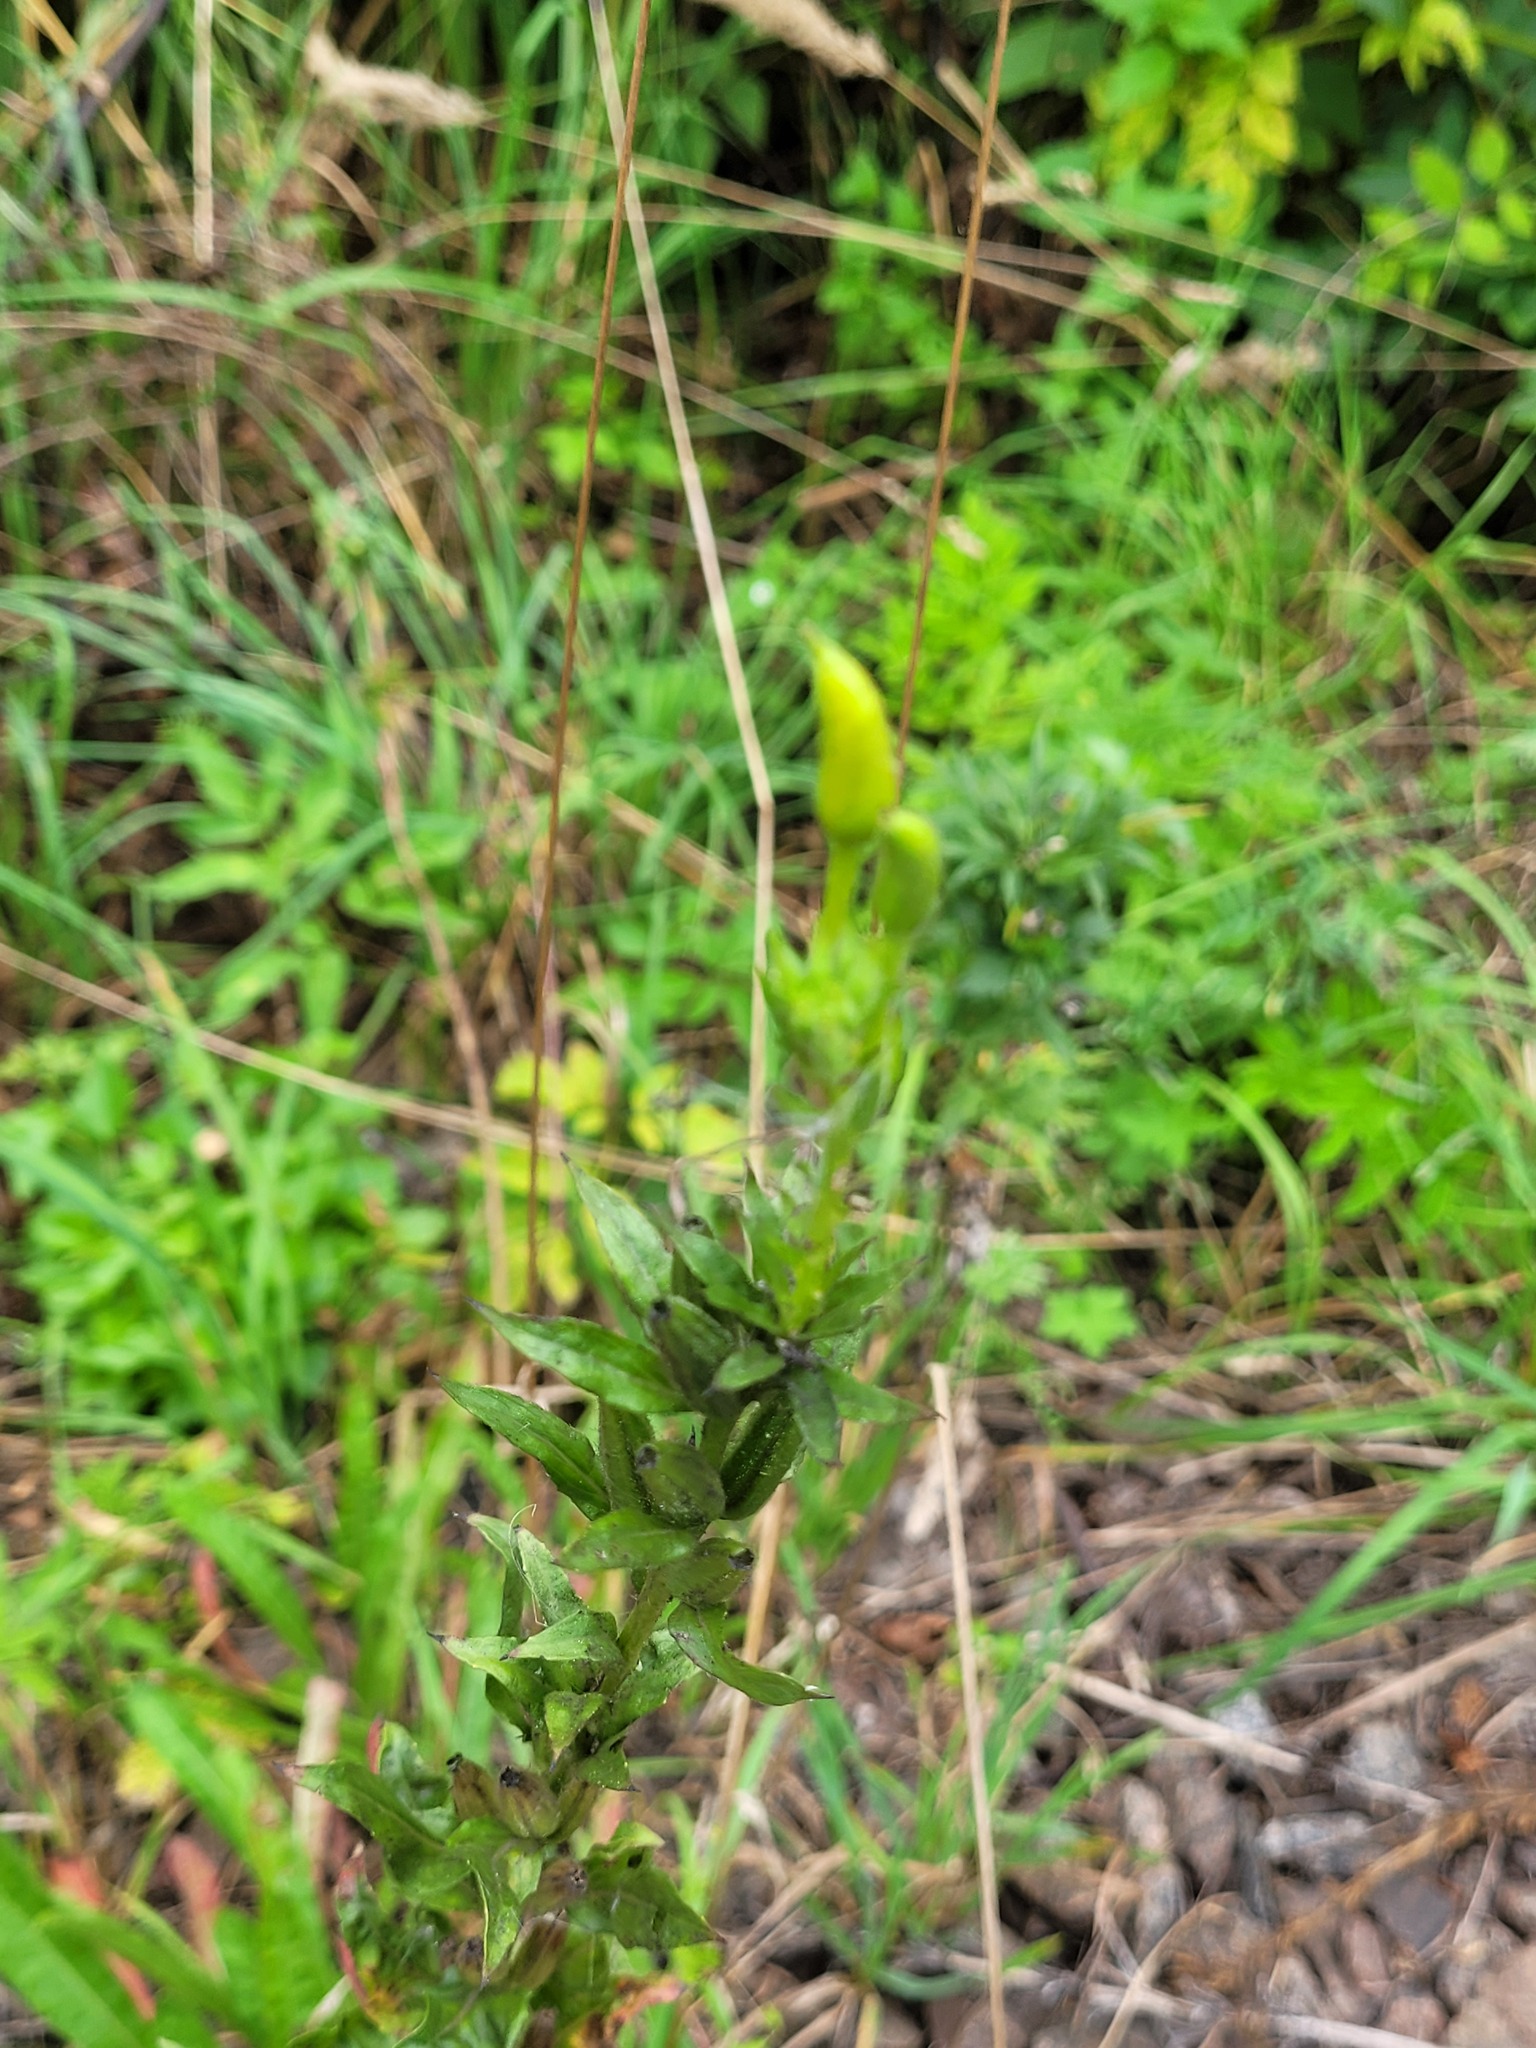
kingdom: Plantae
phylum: Tracheophyta
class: Magnoliopsida
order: Myrtales
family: Onagraceae
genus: Oenothera
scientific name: Oenothera biennis
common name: Common evening-primrose
